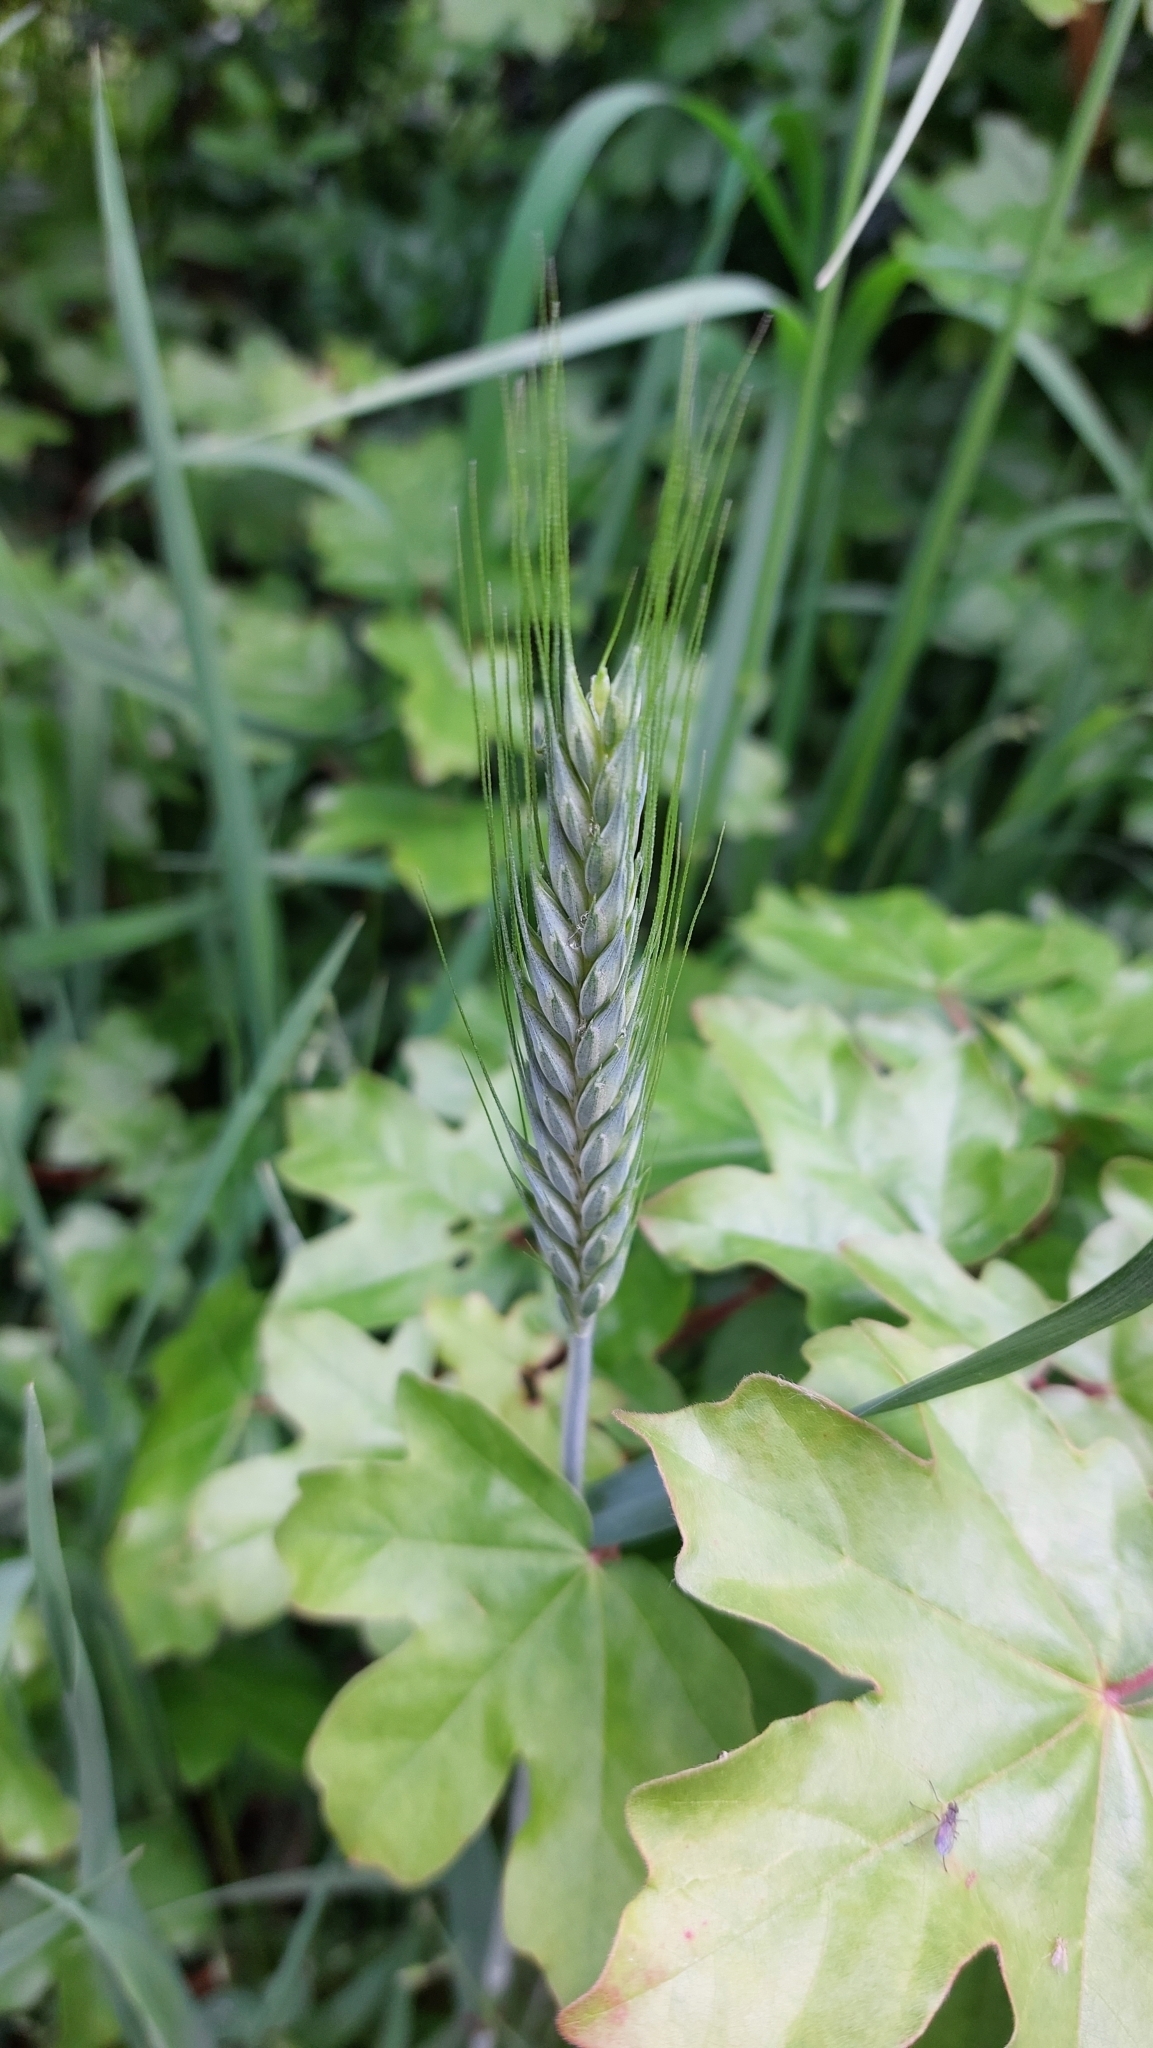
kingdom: Plantae
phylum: Tracheophyta
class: Liliopsida
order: Poales
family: Poaceae
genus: Triticum
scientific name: Triticum aestivum
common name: Common wheat
